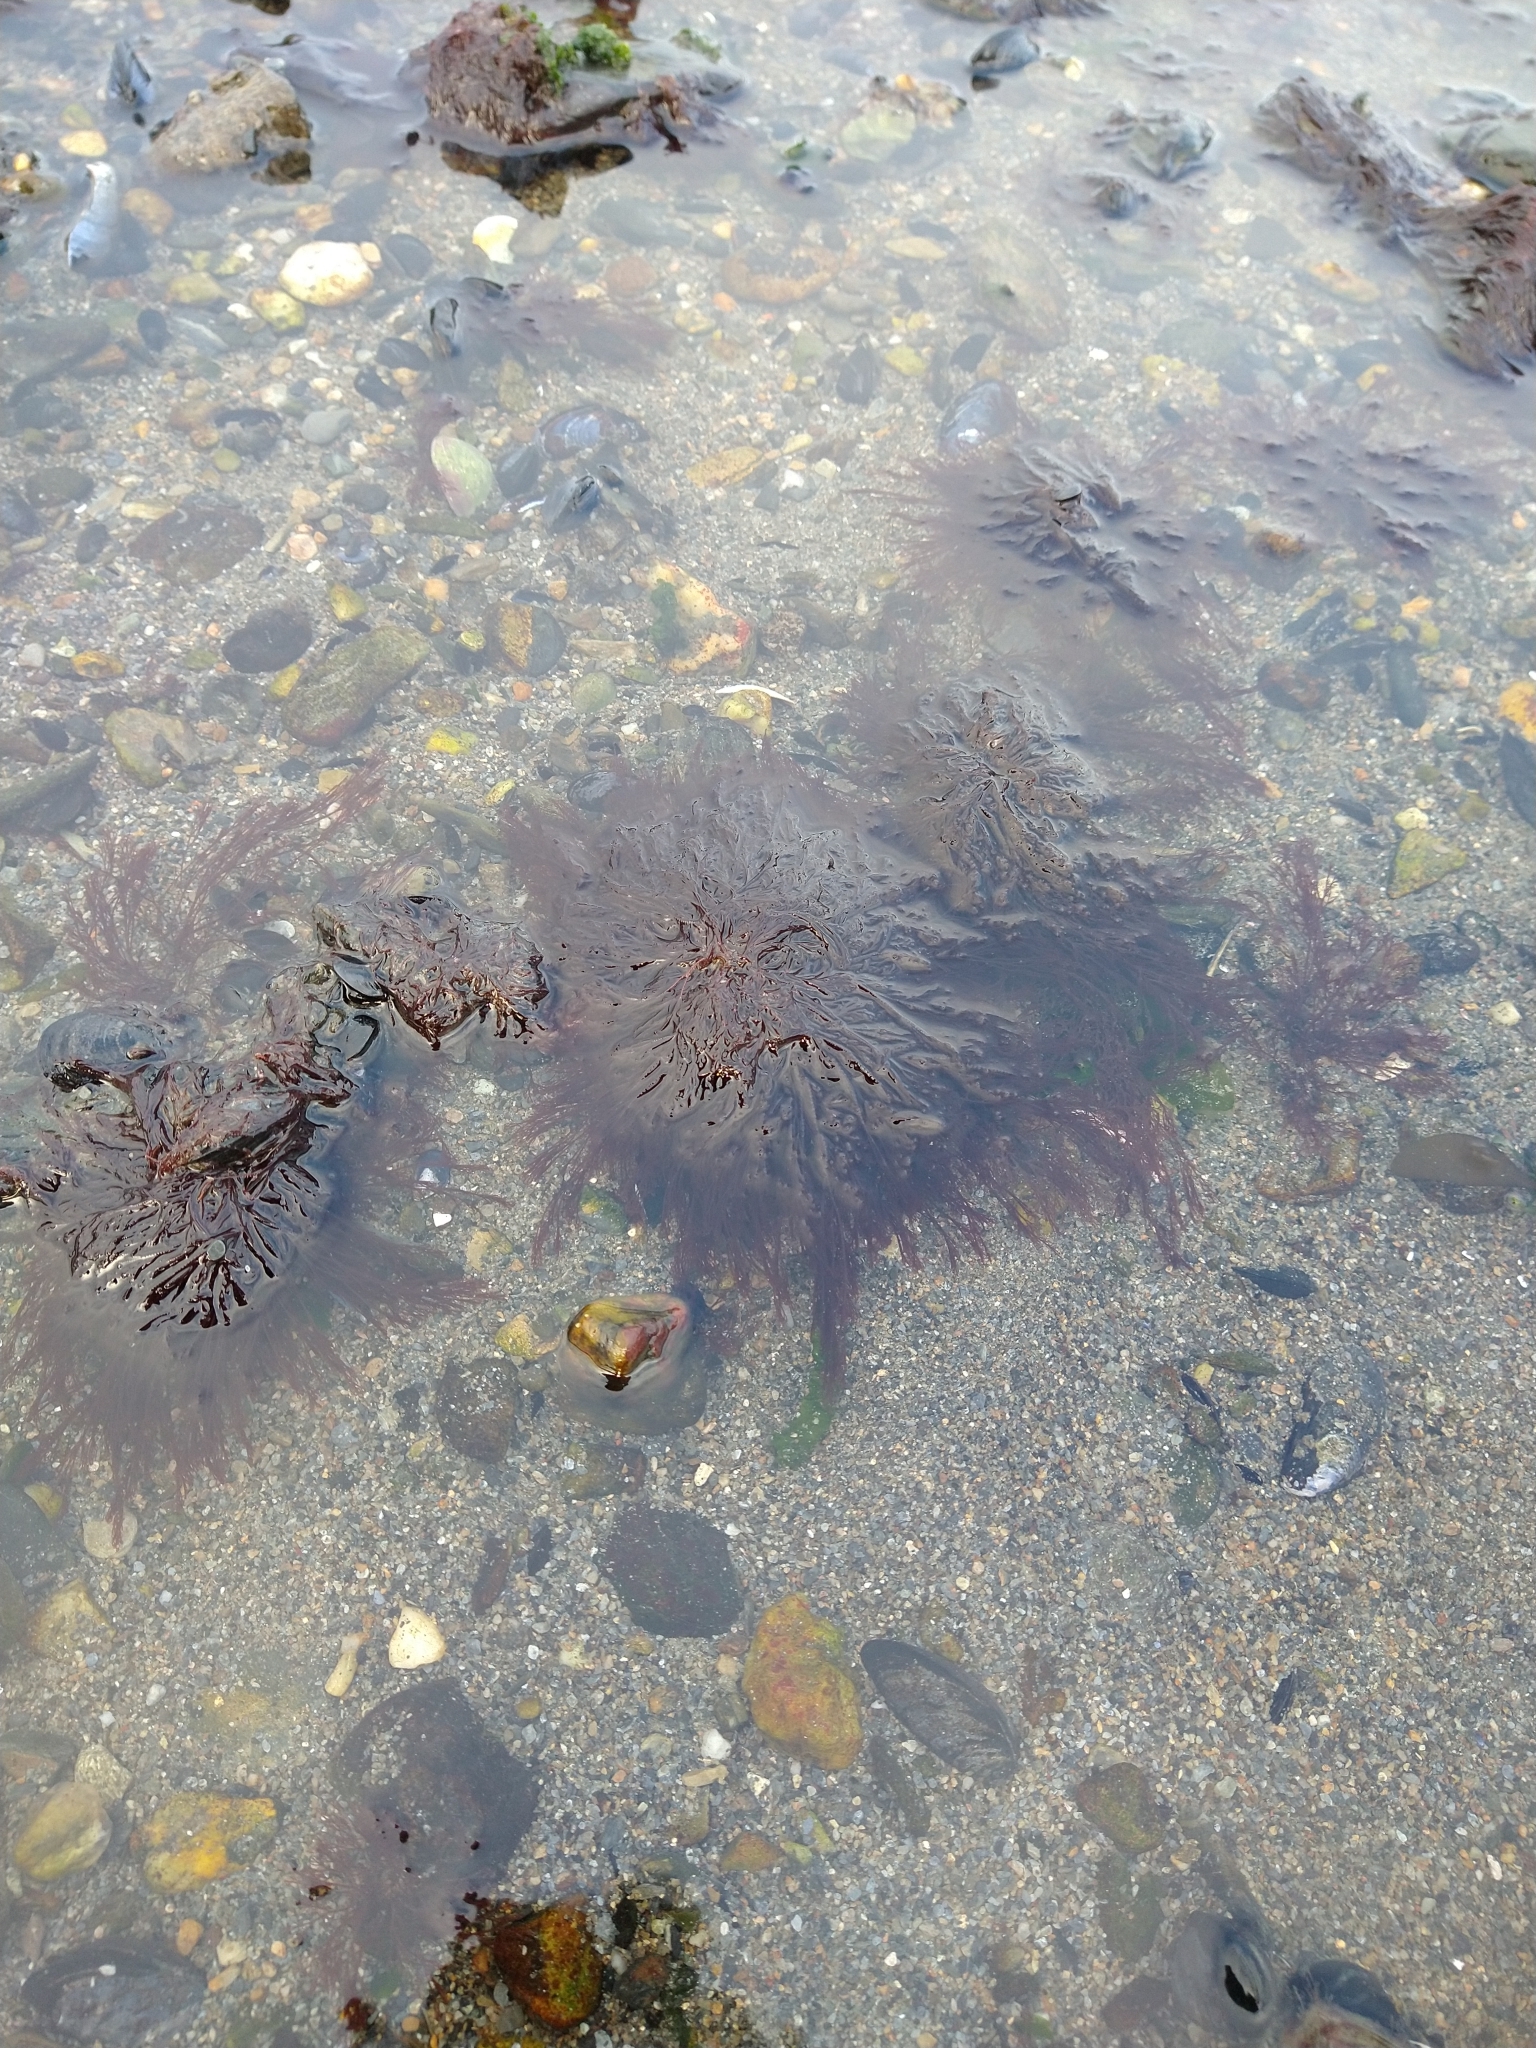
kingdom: Plantae
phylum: Rhodophyta
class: Florideophyceae
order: Ceramiales
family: Ceramiaceae
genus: Ceramium
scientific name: Ceramium
